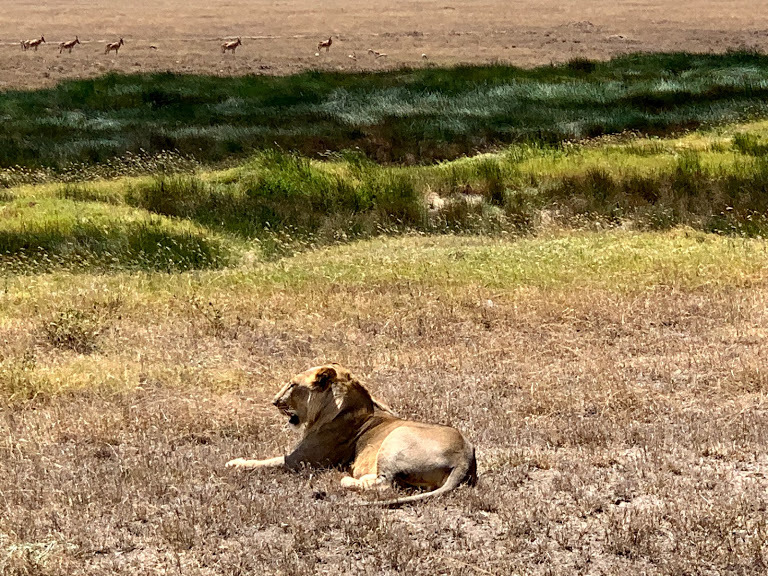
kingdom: Animalia
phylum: Chordata
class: Mammalia
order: Carnivora
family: Felidae
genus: Panthera
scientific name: Panthera leo
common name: Lion
